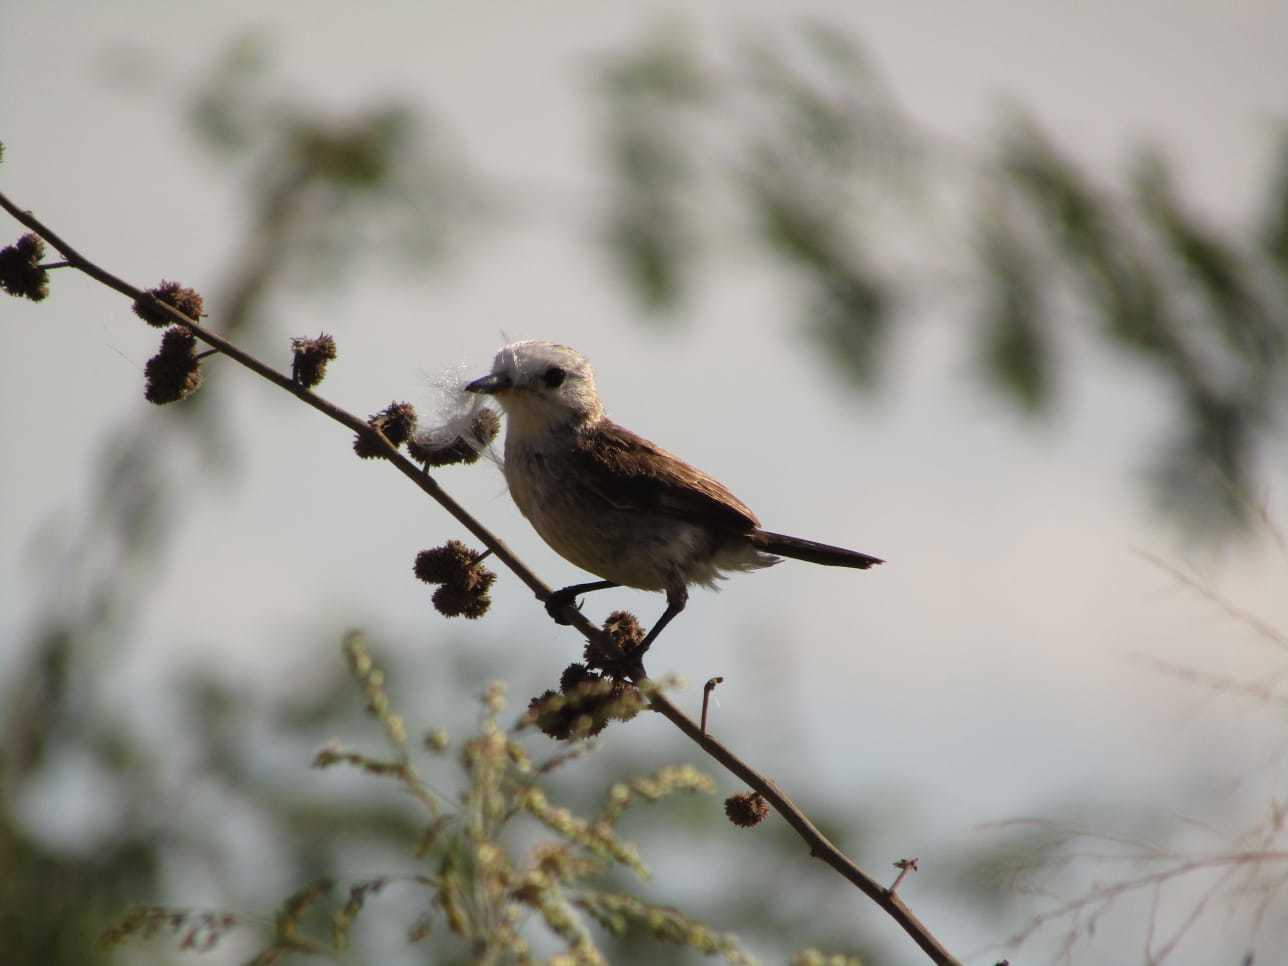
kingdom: Animalia
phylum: Chordata
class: Aves
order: Passeriformes
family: Tyrannidae
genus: Arundinicola
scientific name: Arundinicola leucocephala
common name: White-headed marsh tyrant
